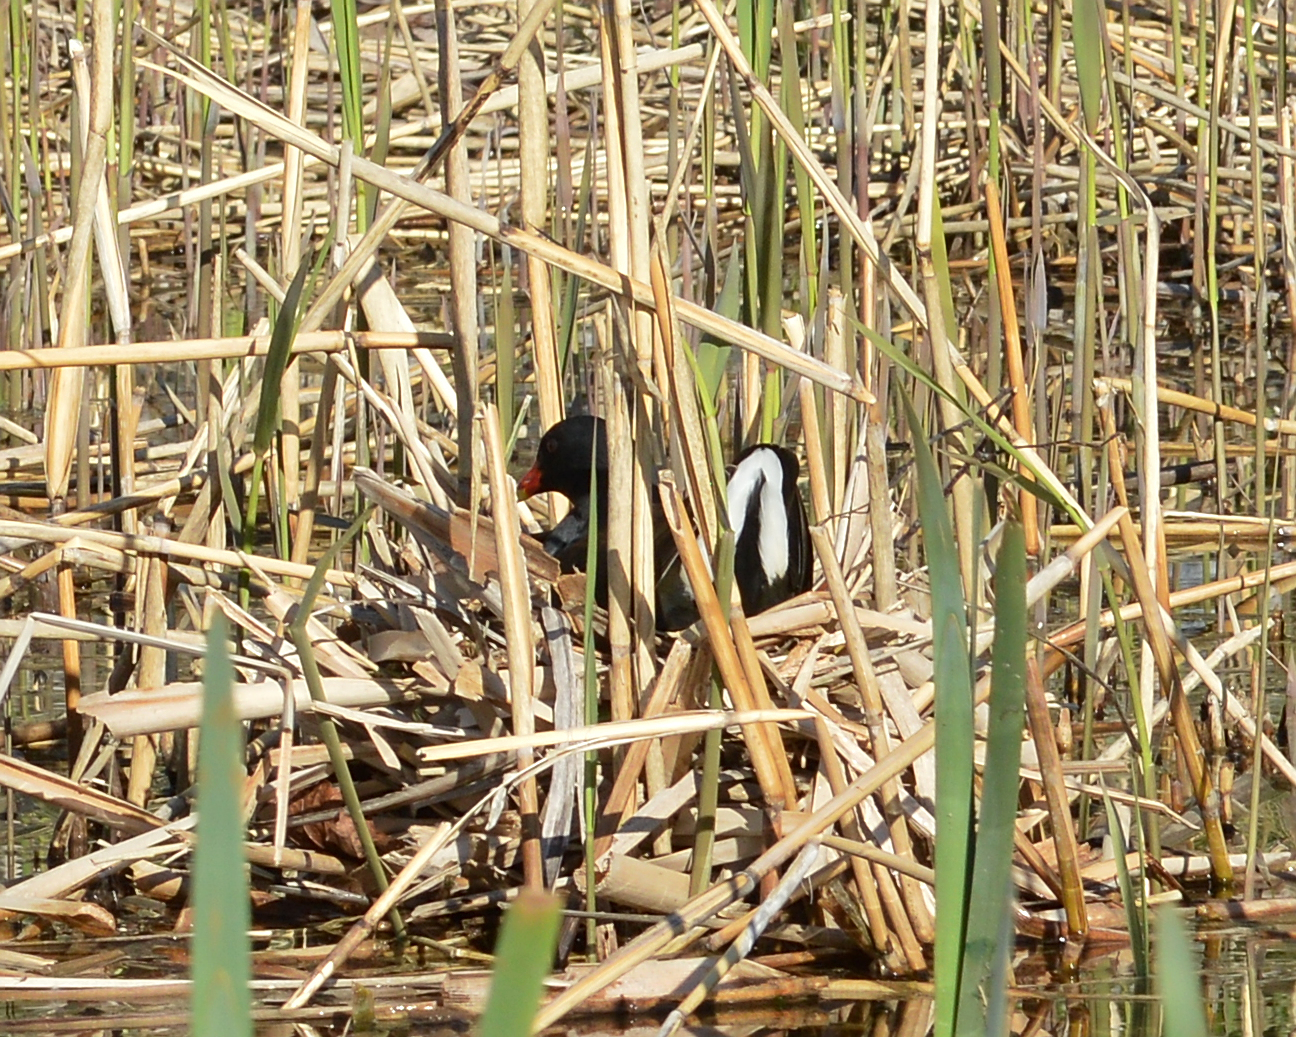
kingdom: Animalia
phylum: Chordata
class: Aves
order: Gruiformes
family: Rallidae
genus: Gallinula
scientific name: Gallinula chloropus
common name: Common moorhen
